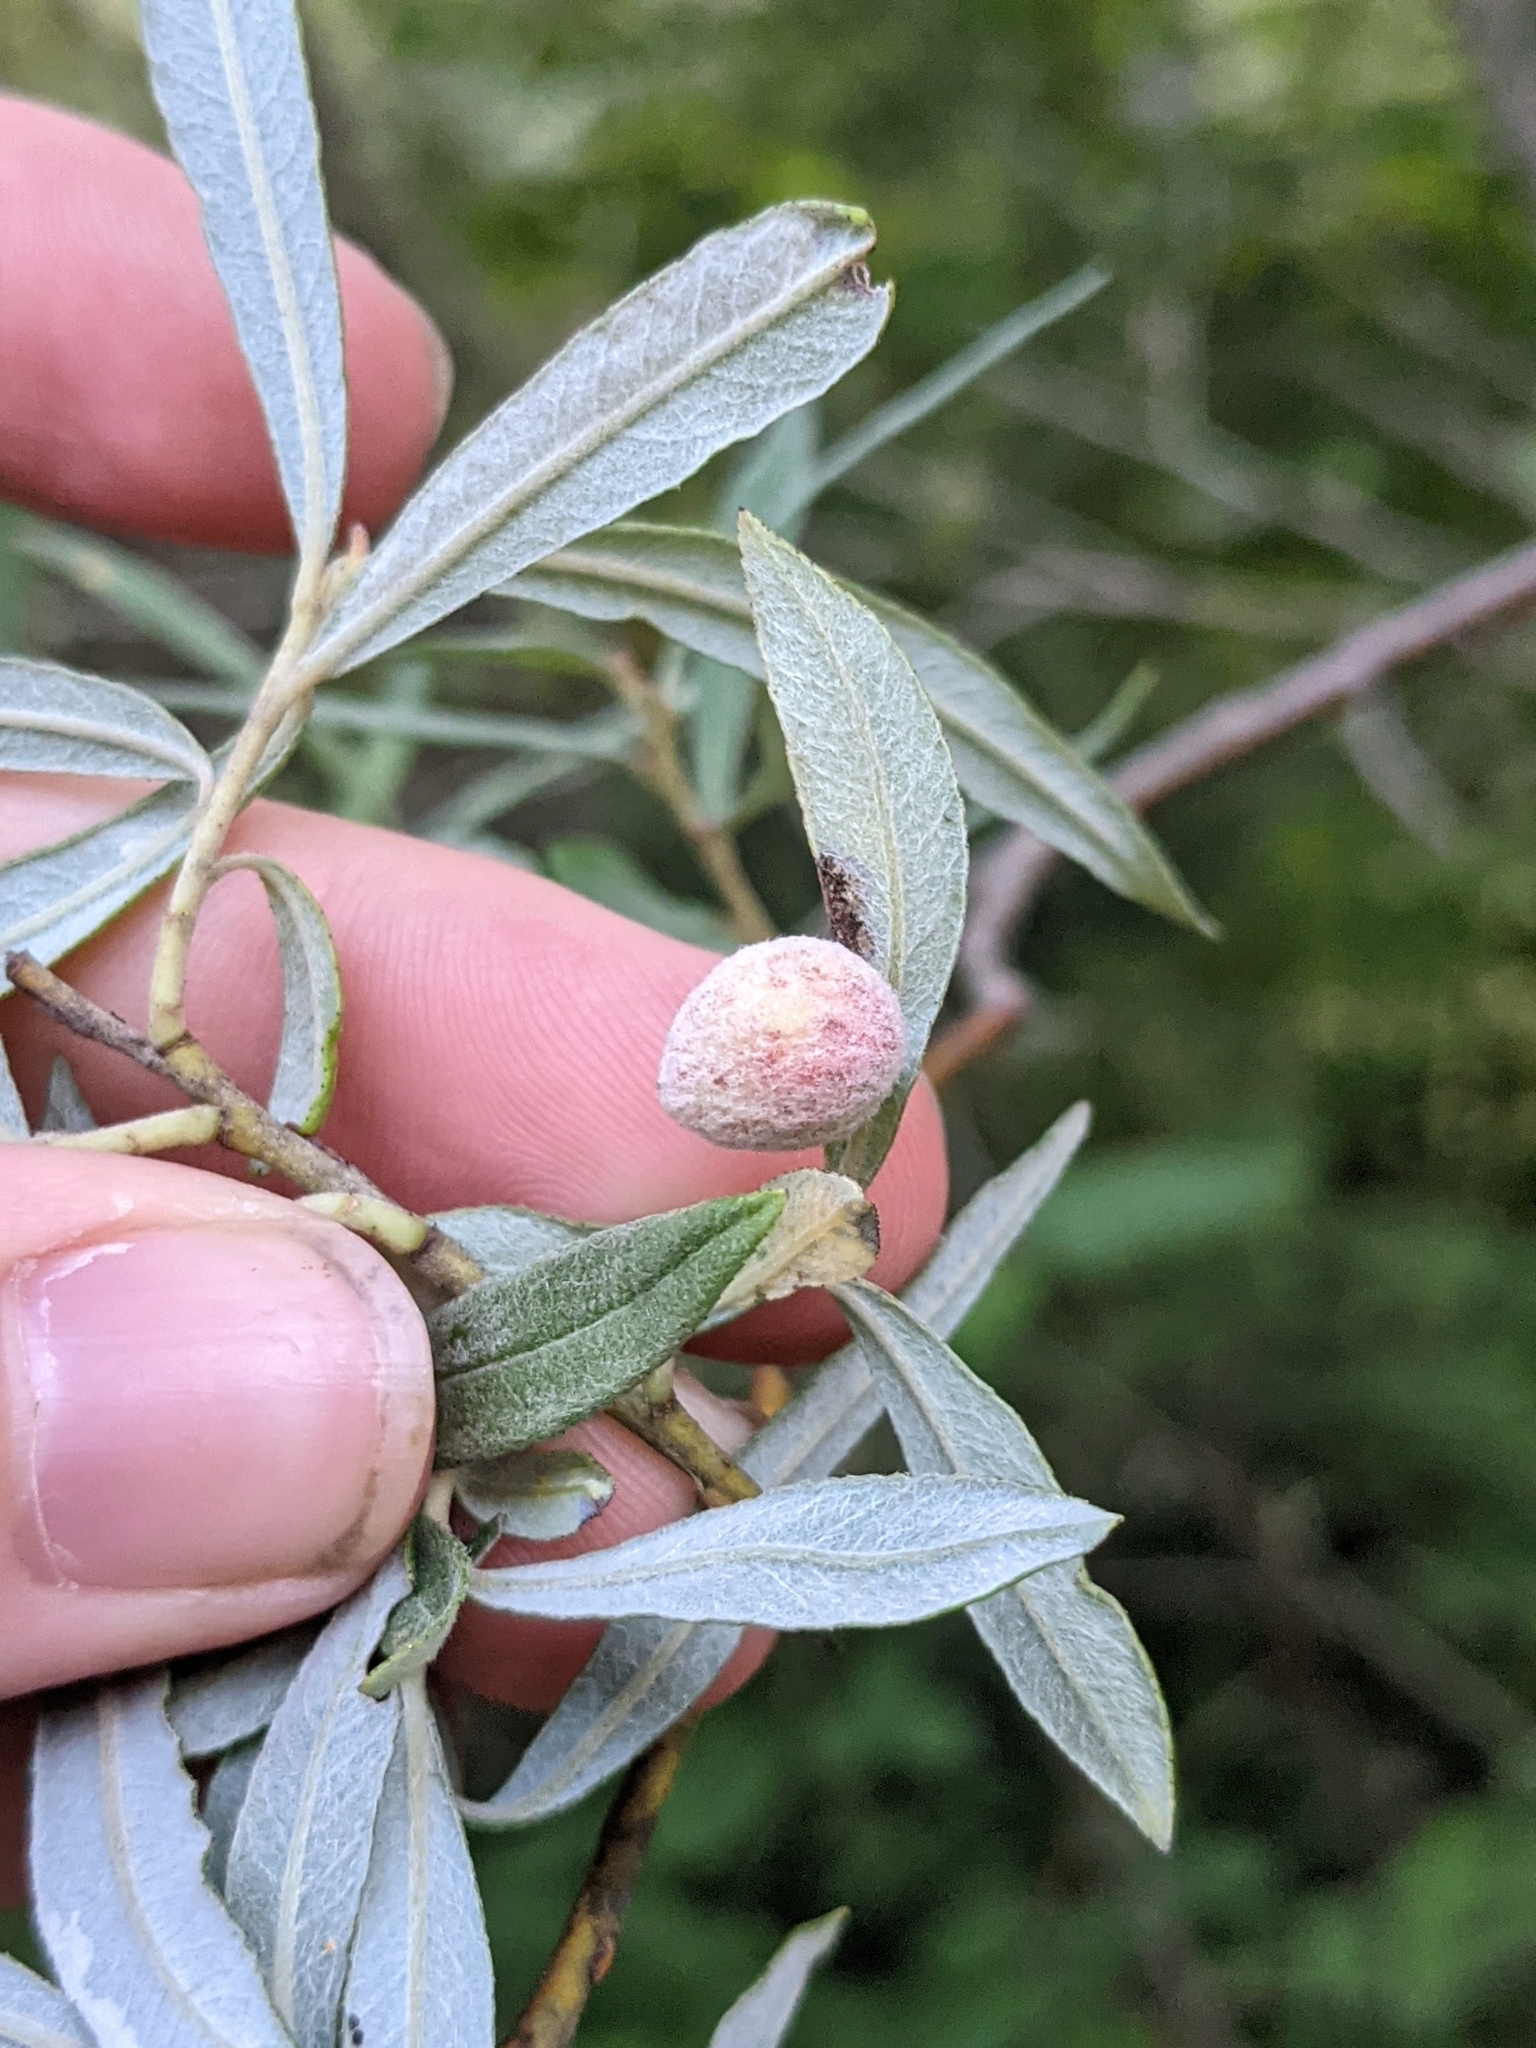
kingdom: Animalia
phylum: Arthropoda
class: Insecta
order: Hymenoptera
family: Tenthredinidae
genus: Euura
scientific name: Euura kriechbaumeri
